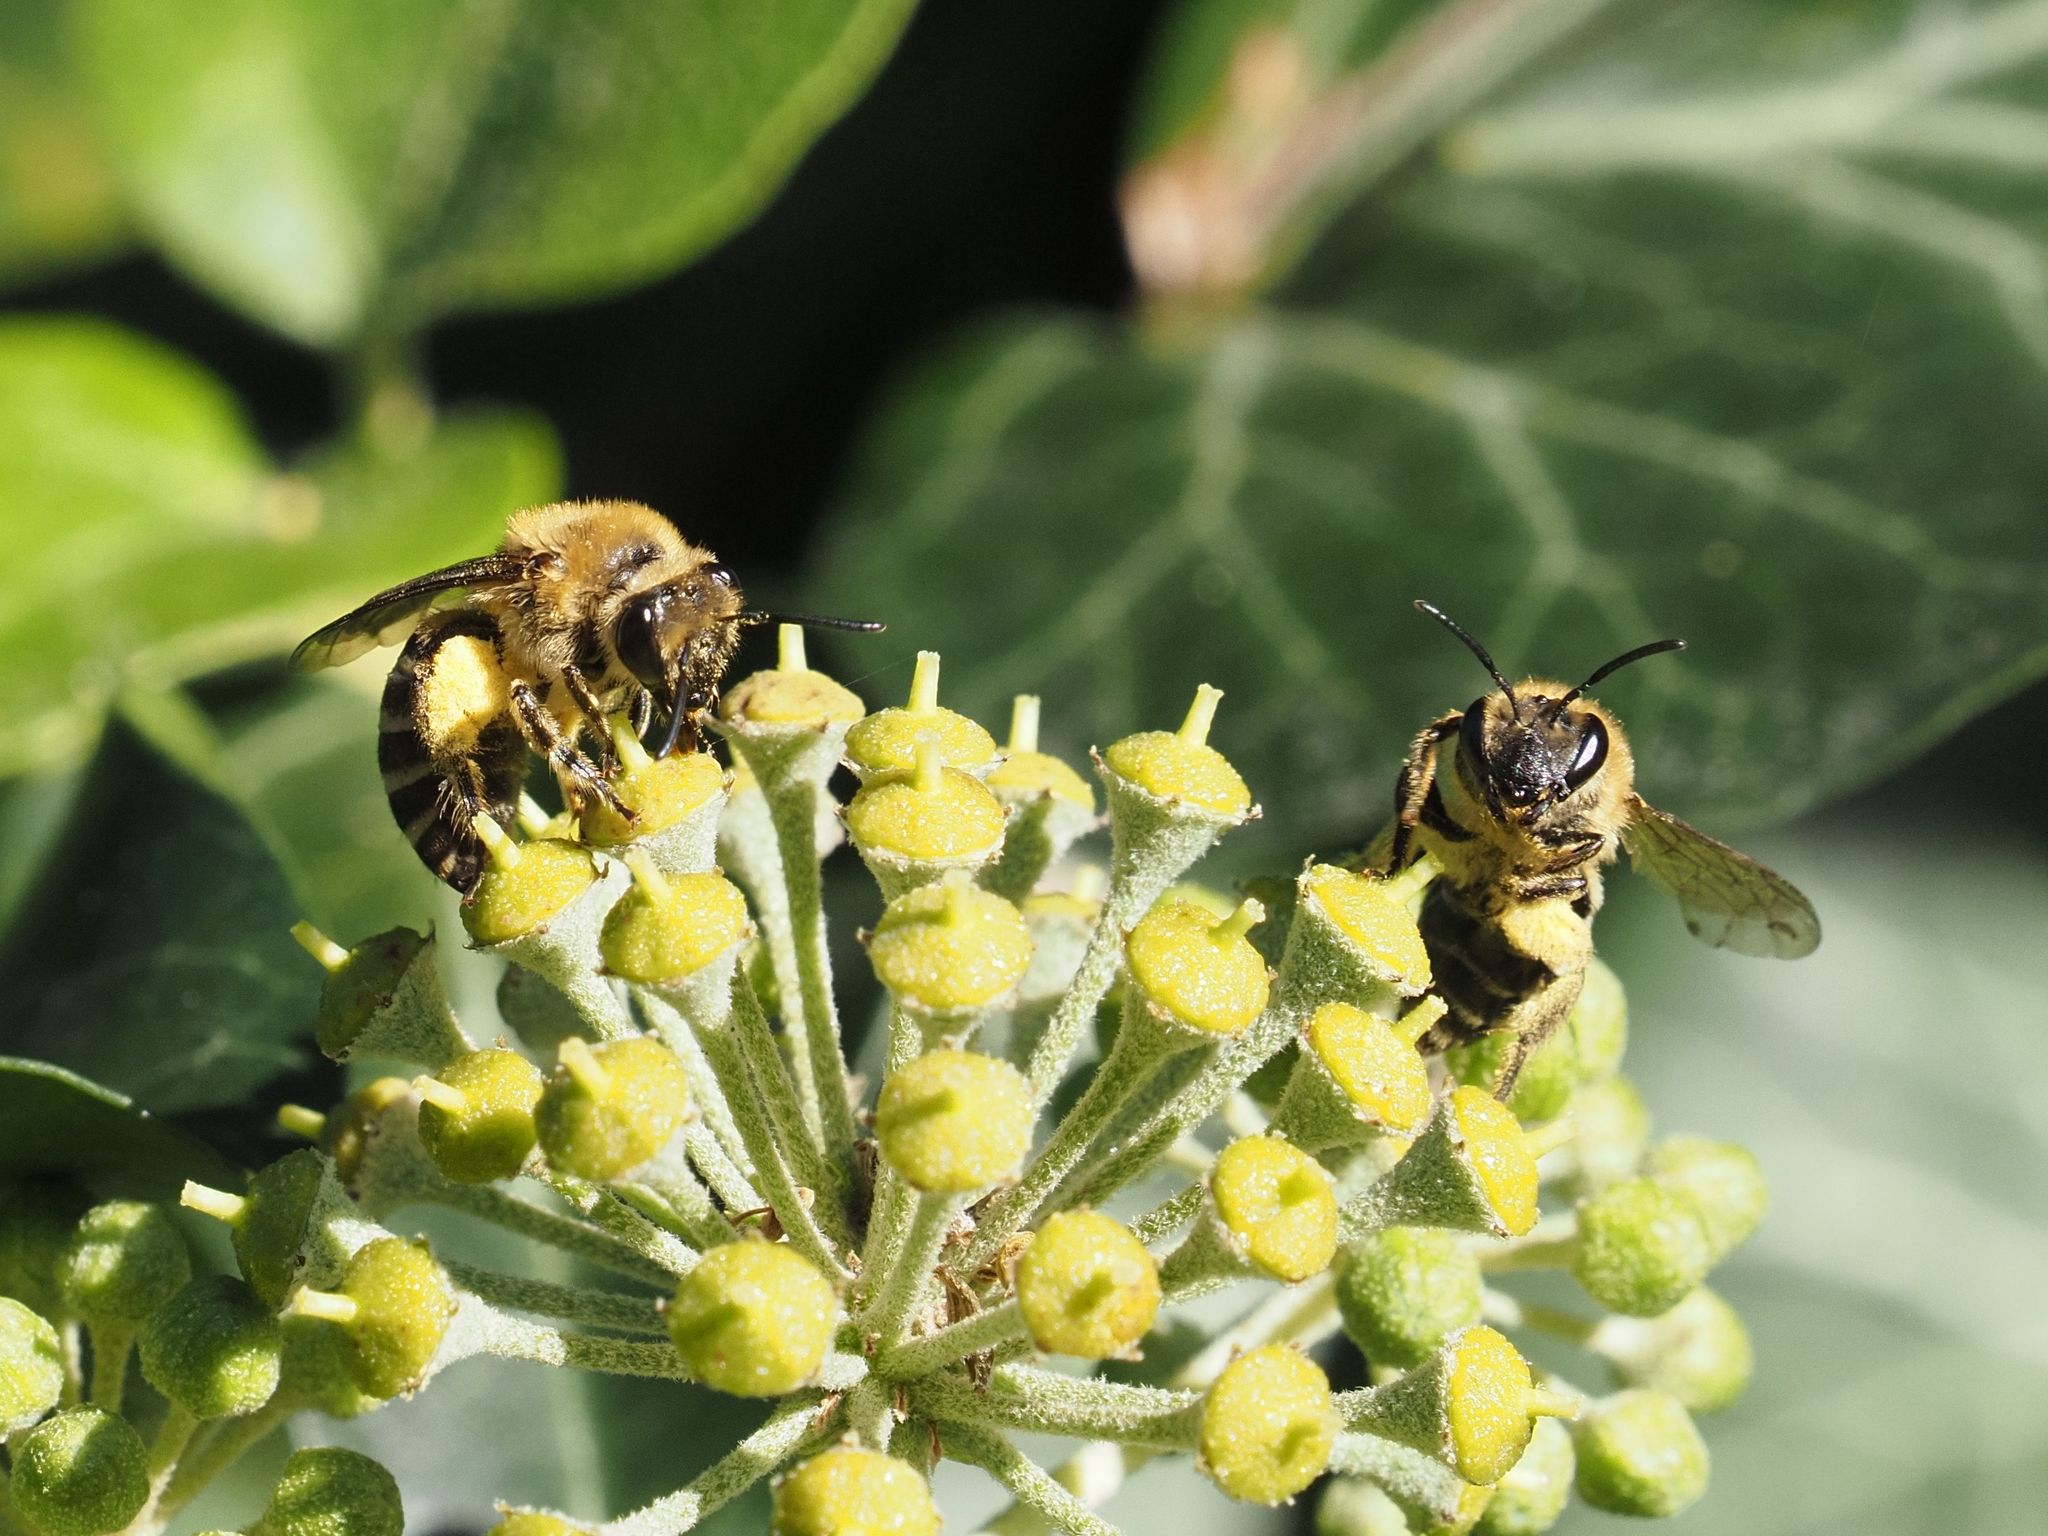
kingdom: Animalia
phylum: Arthropoda
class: Insecta
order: Hymenoptera
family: Colletidae
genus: Colletes
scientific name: Colletes hederae
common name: Ivy bee
